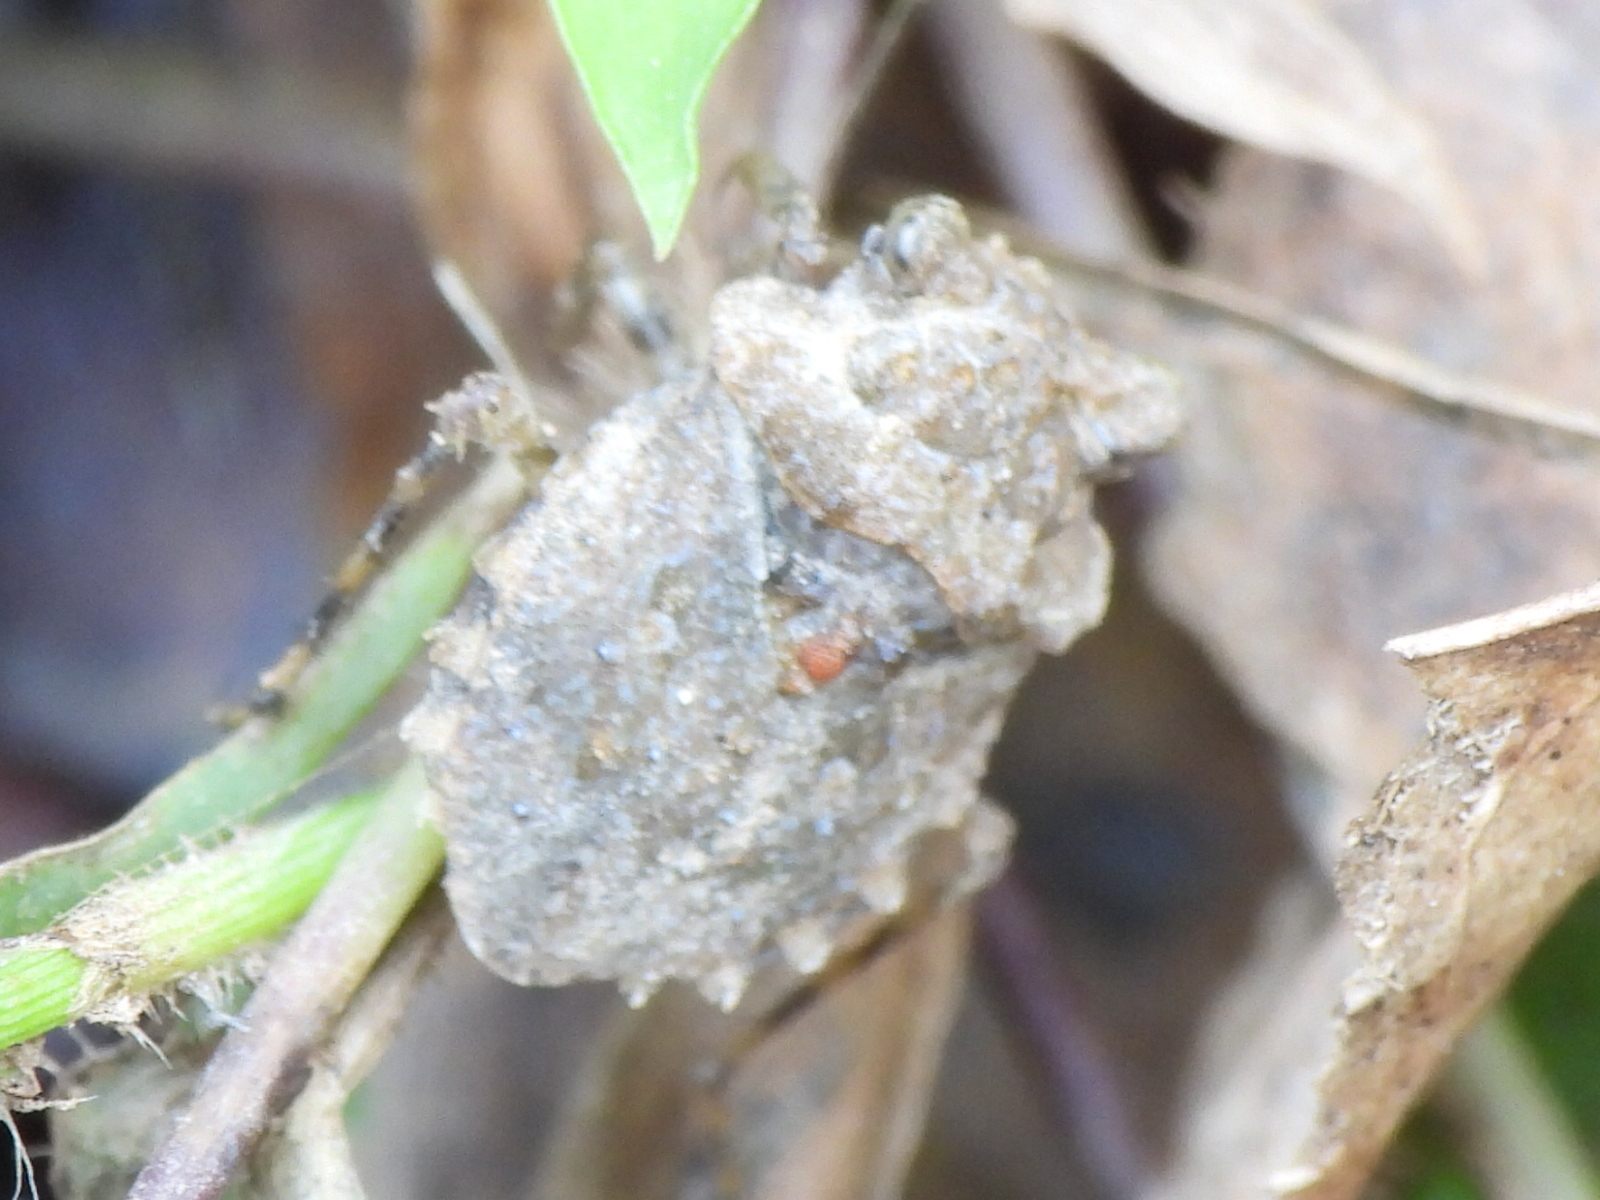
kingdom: Animalia
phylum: Arthropoda
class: Insecta
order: Hemiptera
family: Gelastocoridae
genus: Gelastocoris
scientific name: Gelastocoris oculatus
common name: Toad bug
